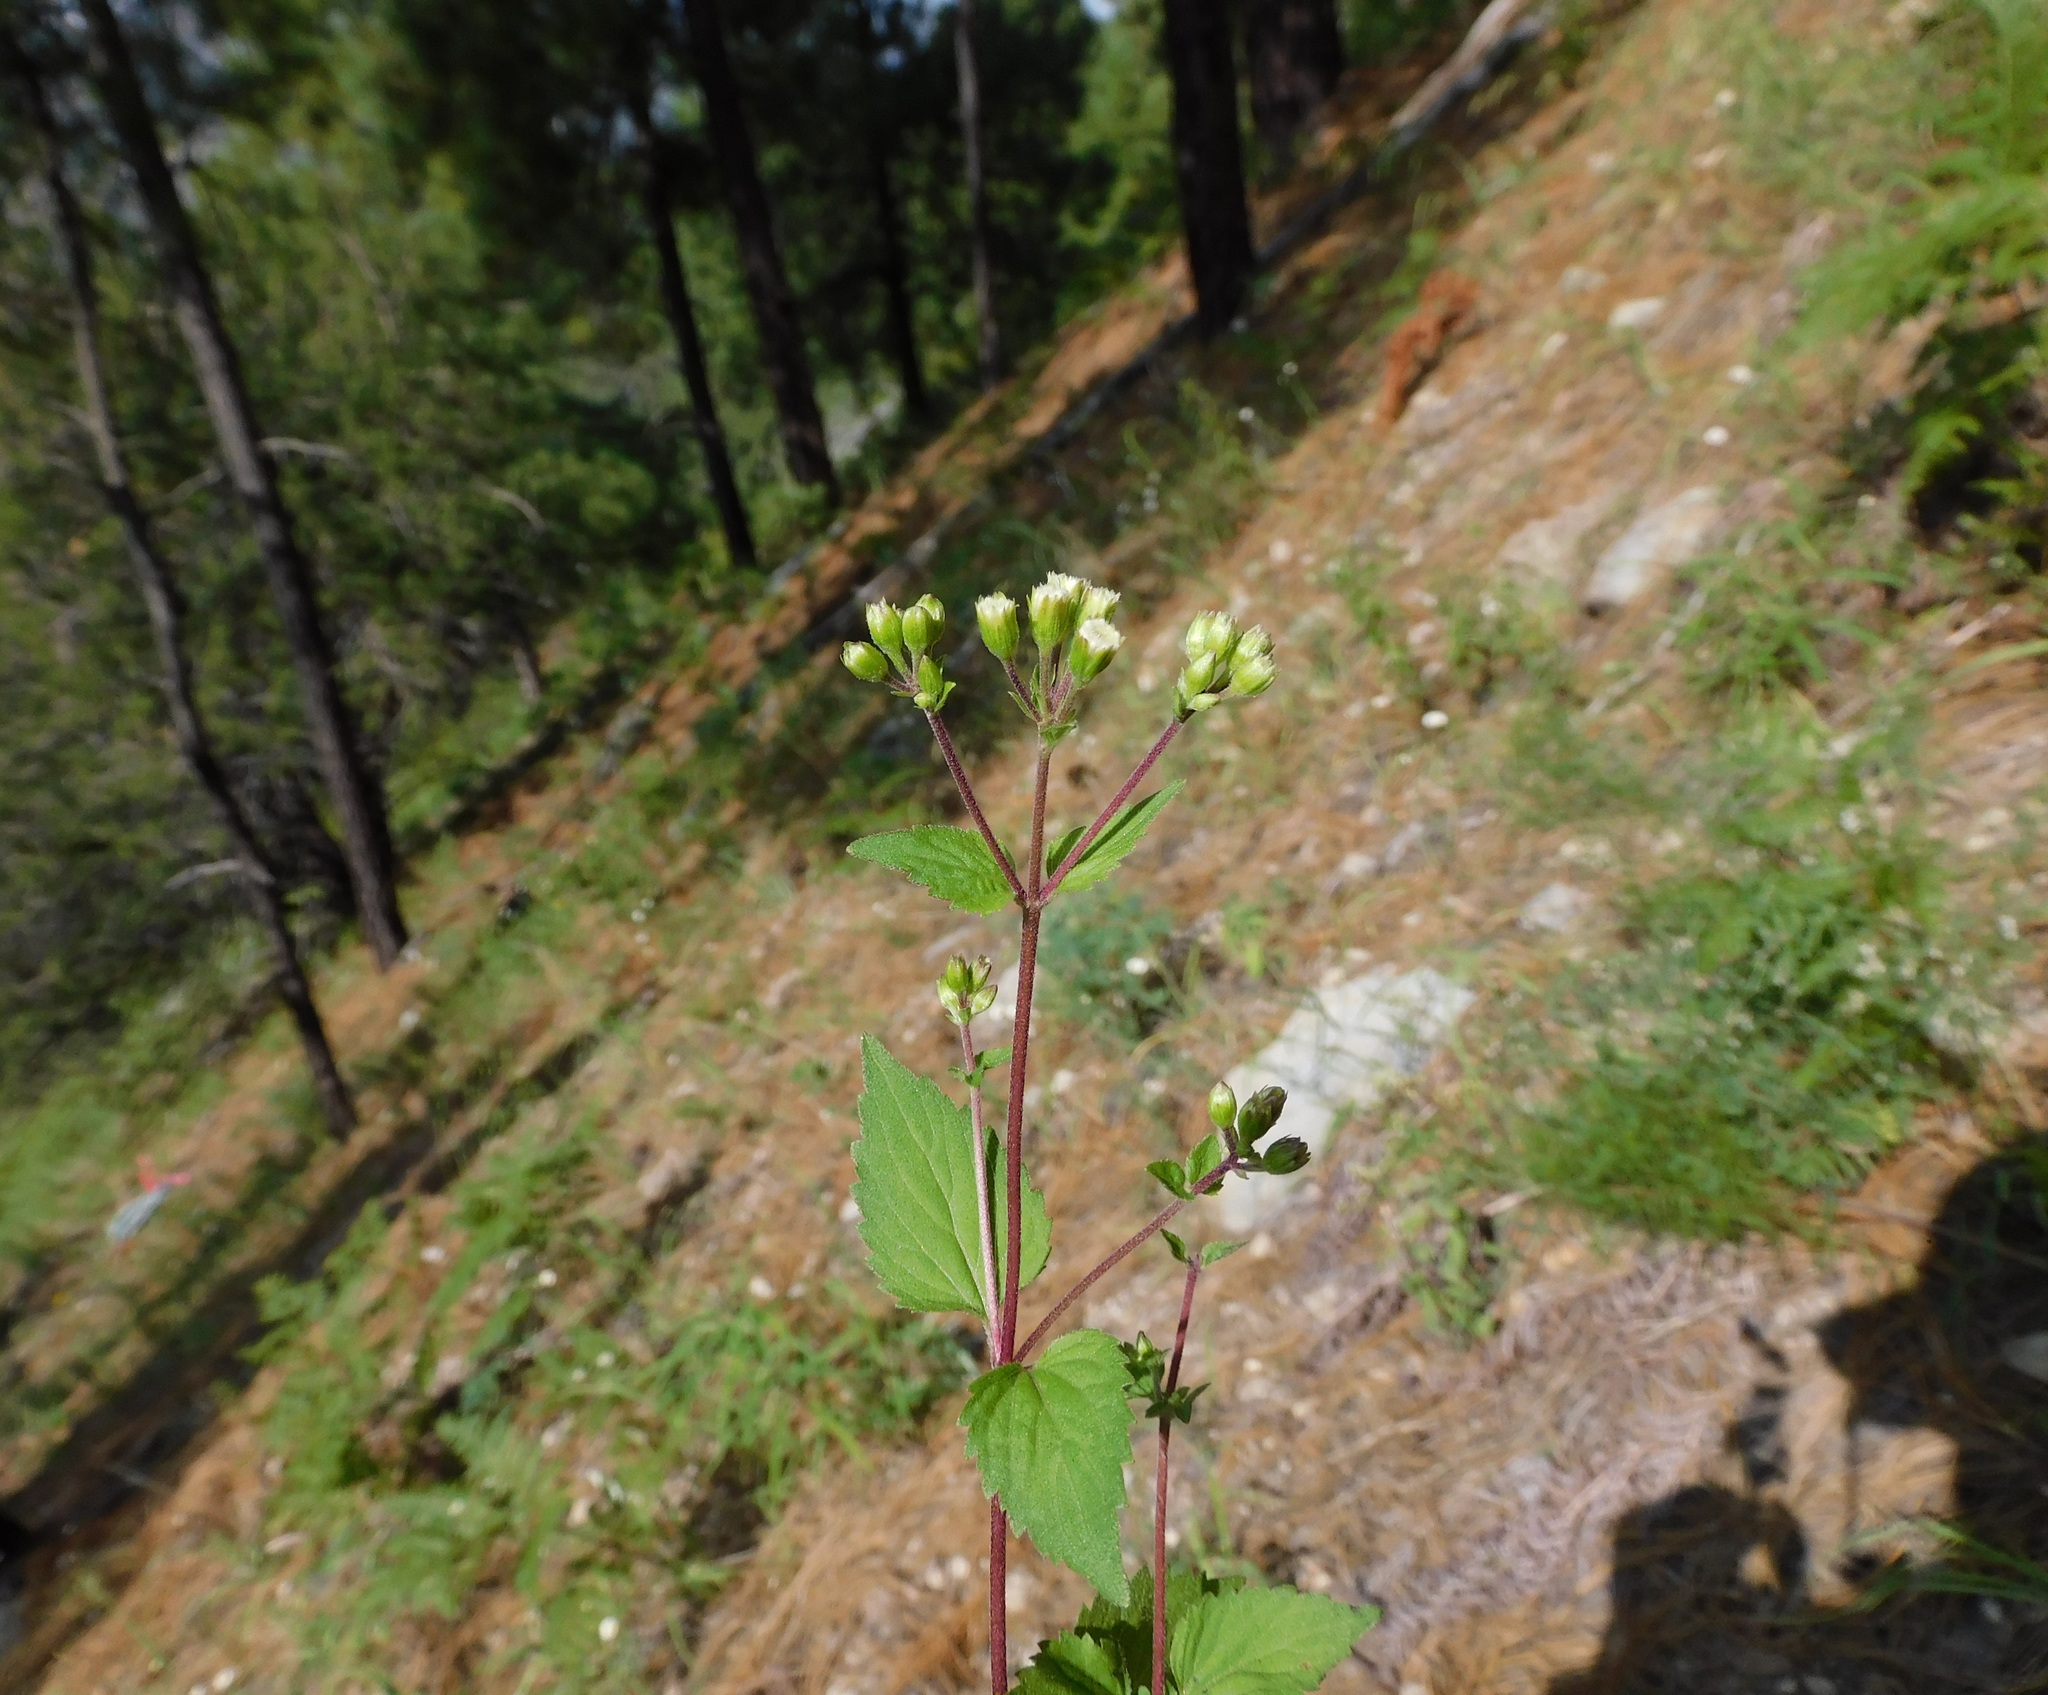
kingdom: Plantae
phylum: Tracheophyta
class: Magnoliopsida
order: Asterales
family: Asteraceae
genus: Ageratina
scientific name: Ageratina rothrockii
